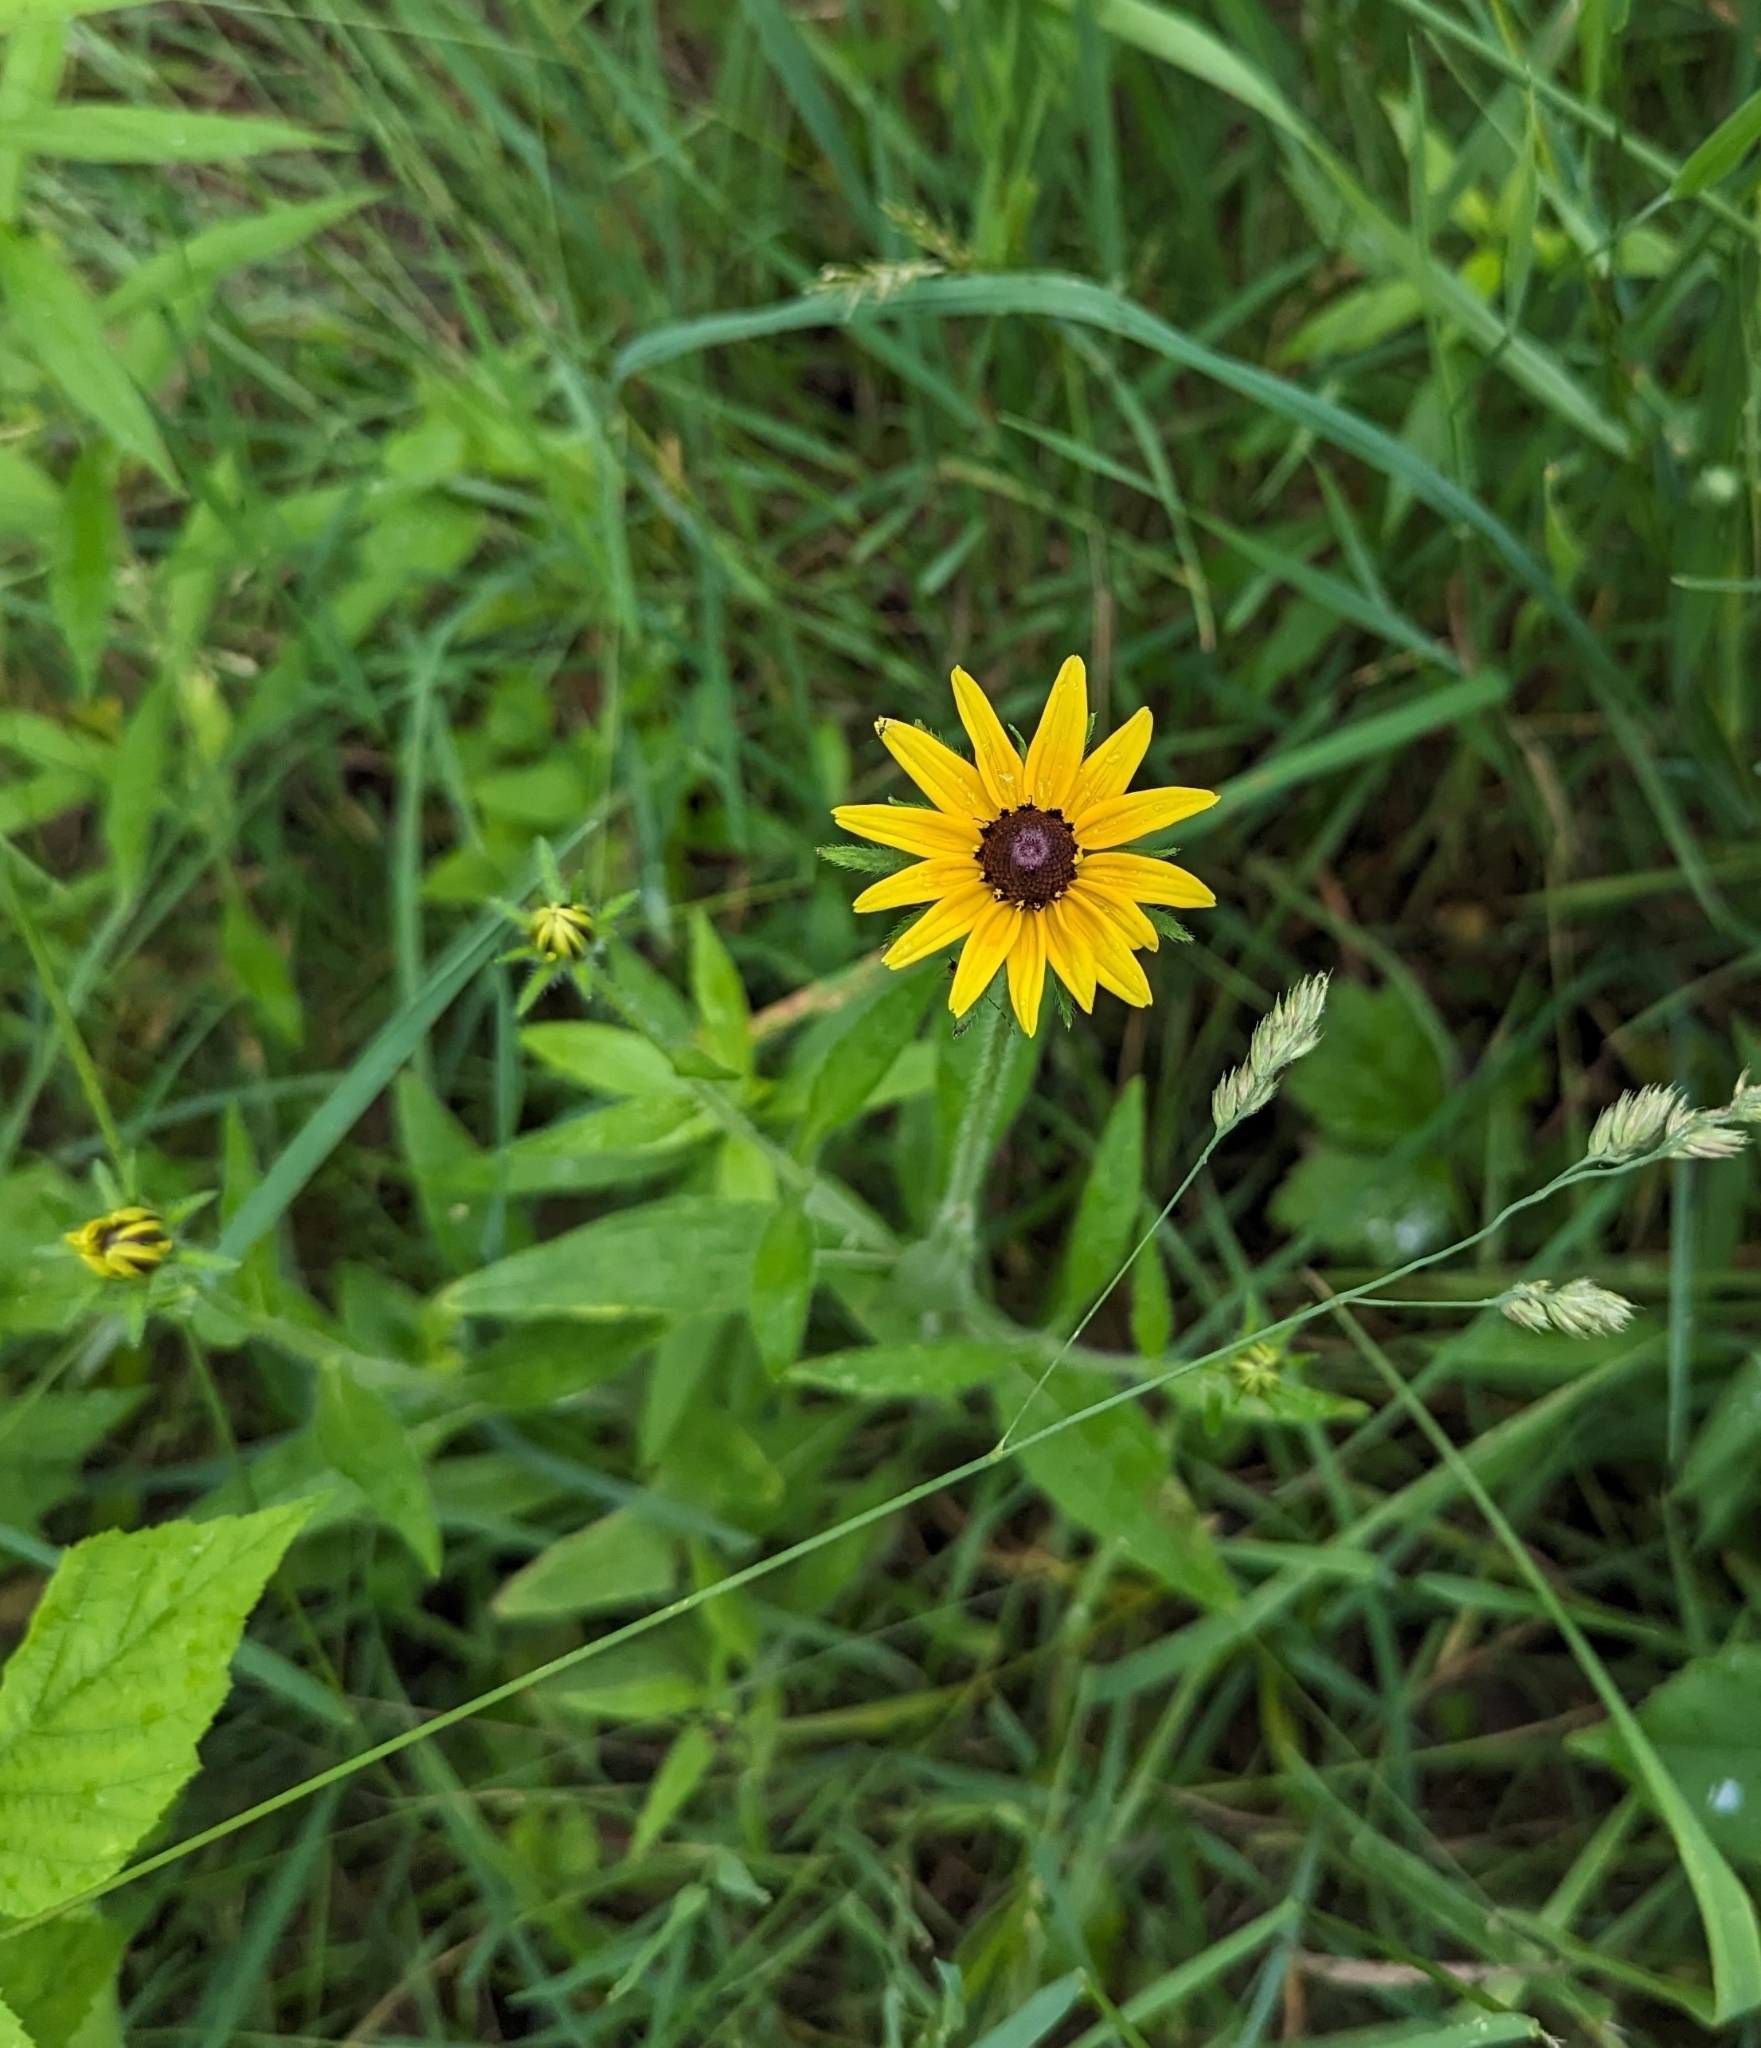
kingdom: Plantae
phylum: Tracheophyta
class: Magnoliopsida
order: Asterales
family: Asteraceae
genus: Rudbeckia
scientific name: Rudbeckia hirta
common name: Black-eyed-susan
